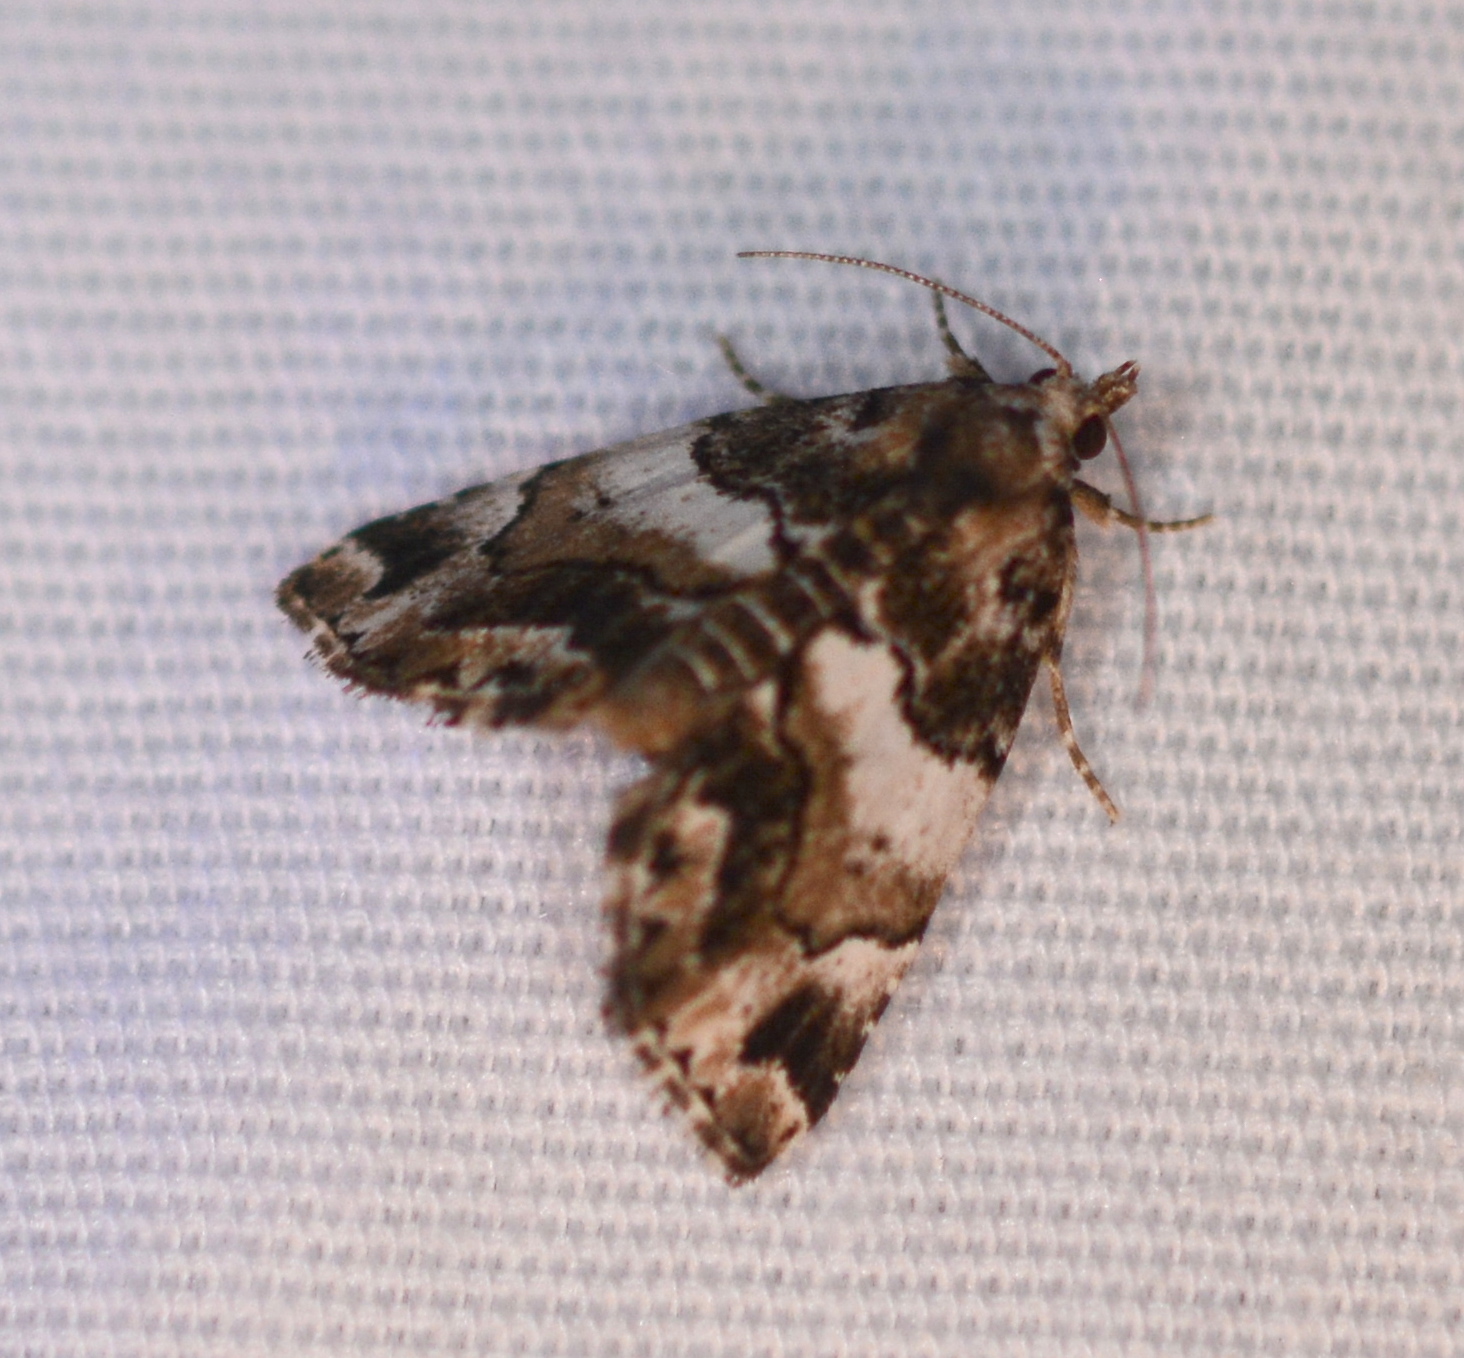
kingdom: Animalia
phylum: Arthropoda
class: Insecta
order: Lepidoptera
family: Erebidae
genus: Cutina
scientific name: Cutina distincta
